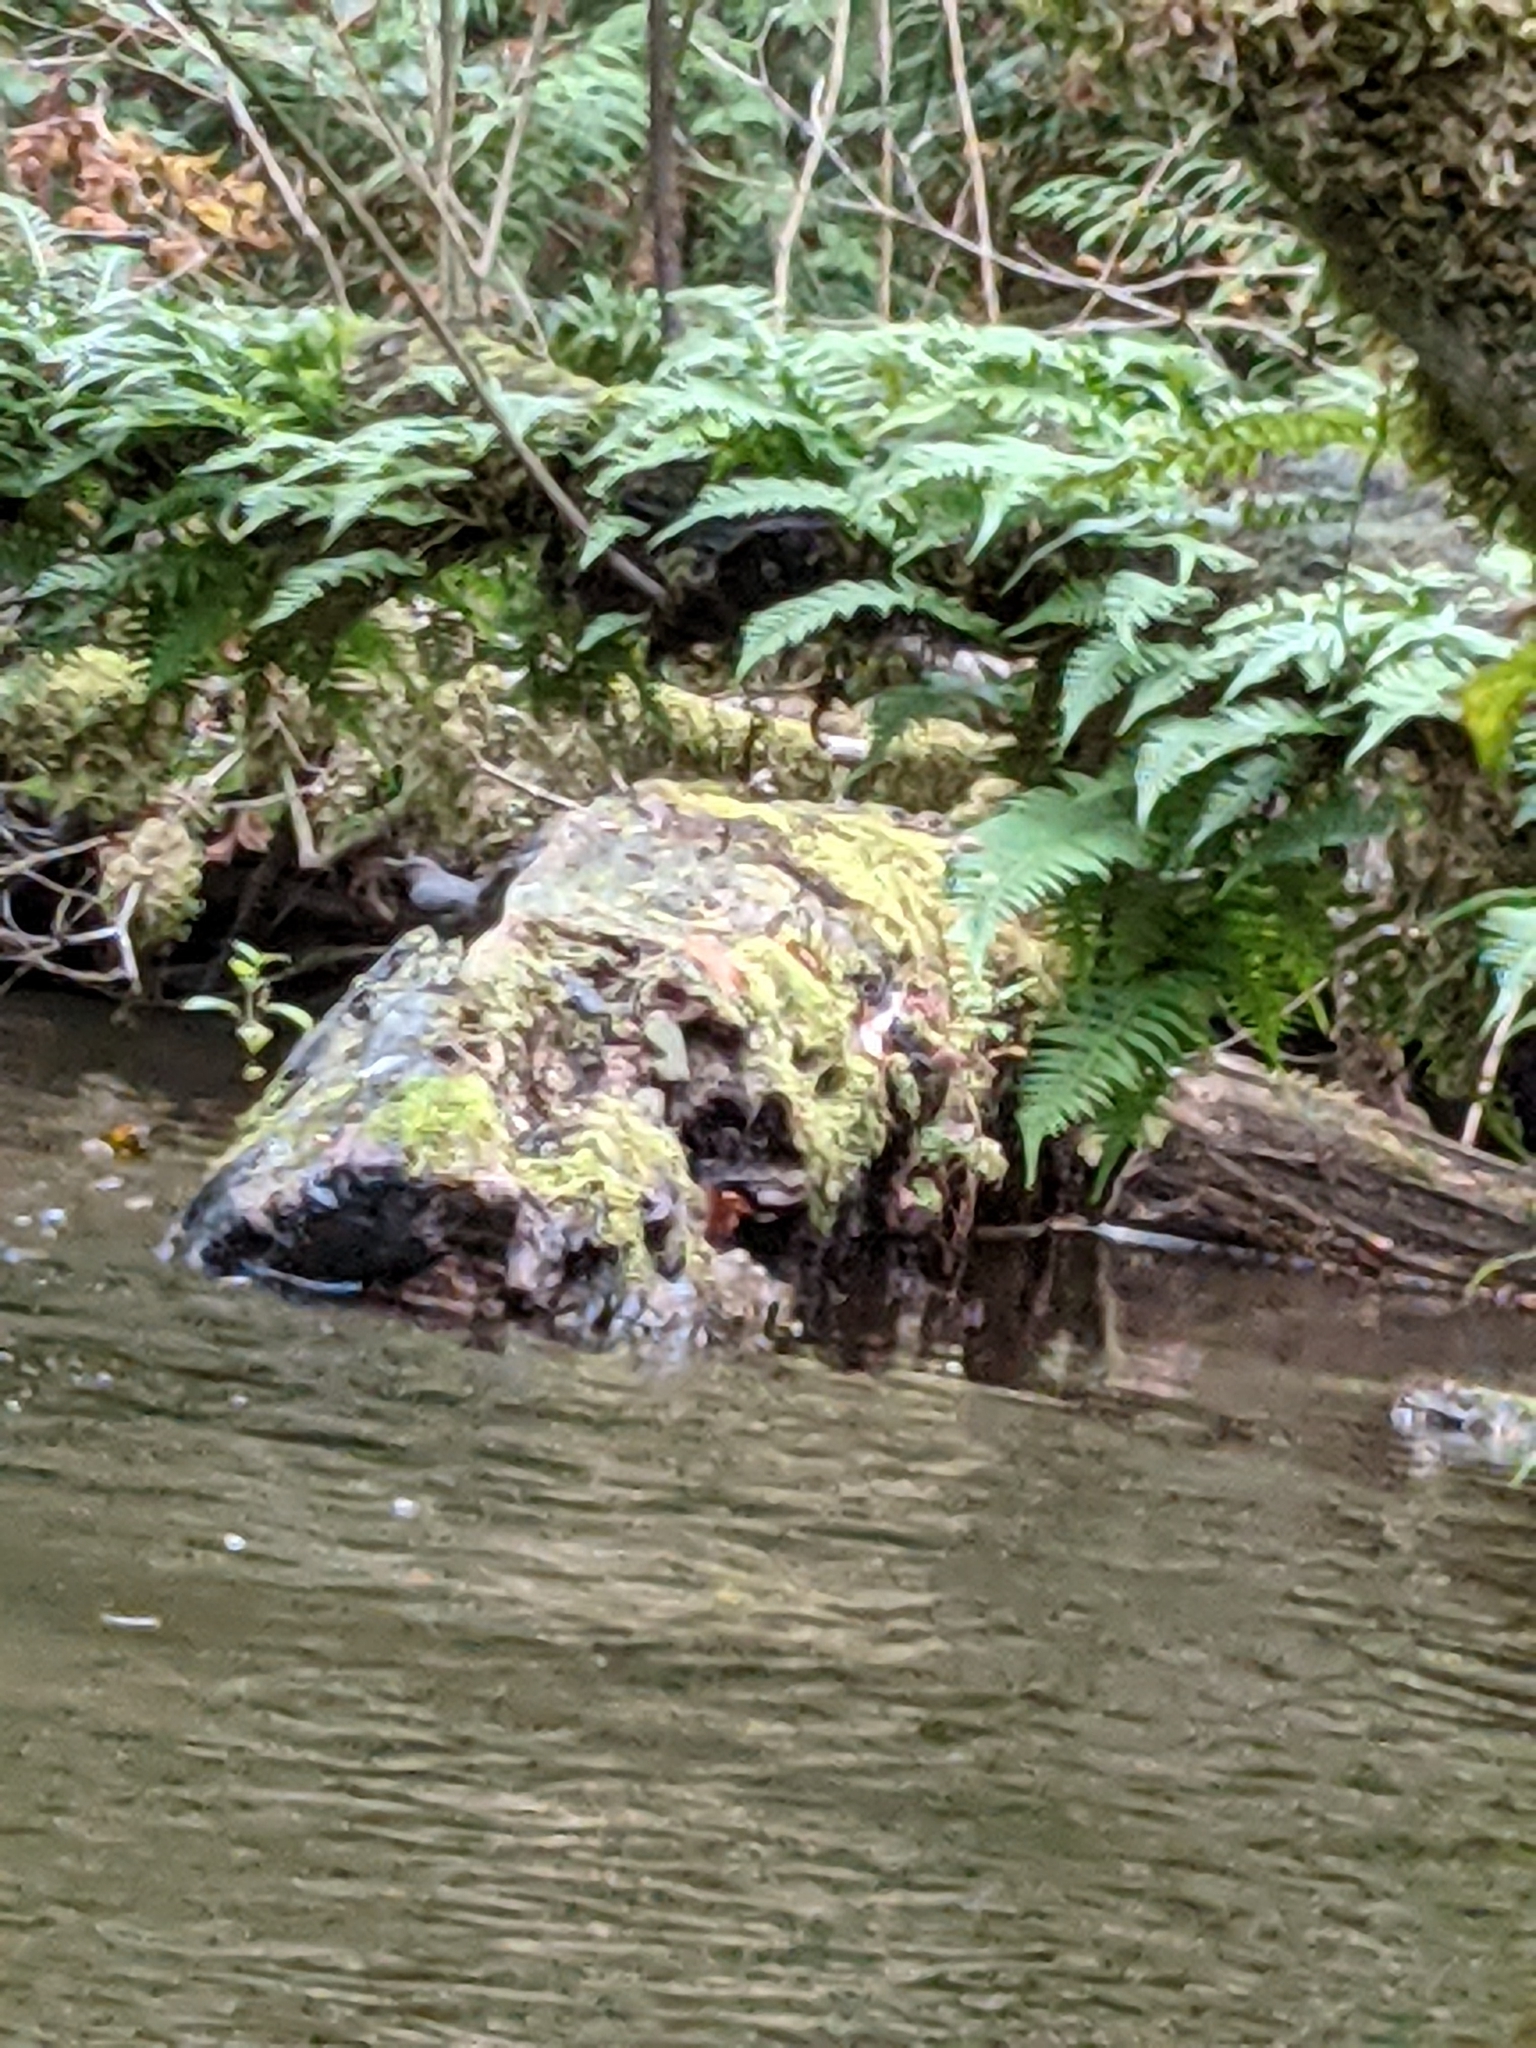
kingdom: Animalia
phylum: Chordata
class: Aves
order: Passeriformes
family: Cinclidae
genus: Cinclus
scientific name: Cinclus mexicanus
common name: American dipper
